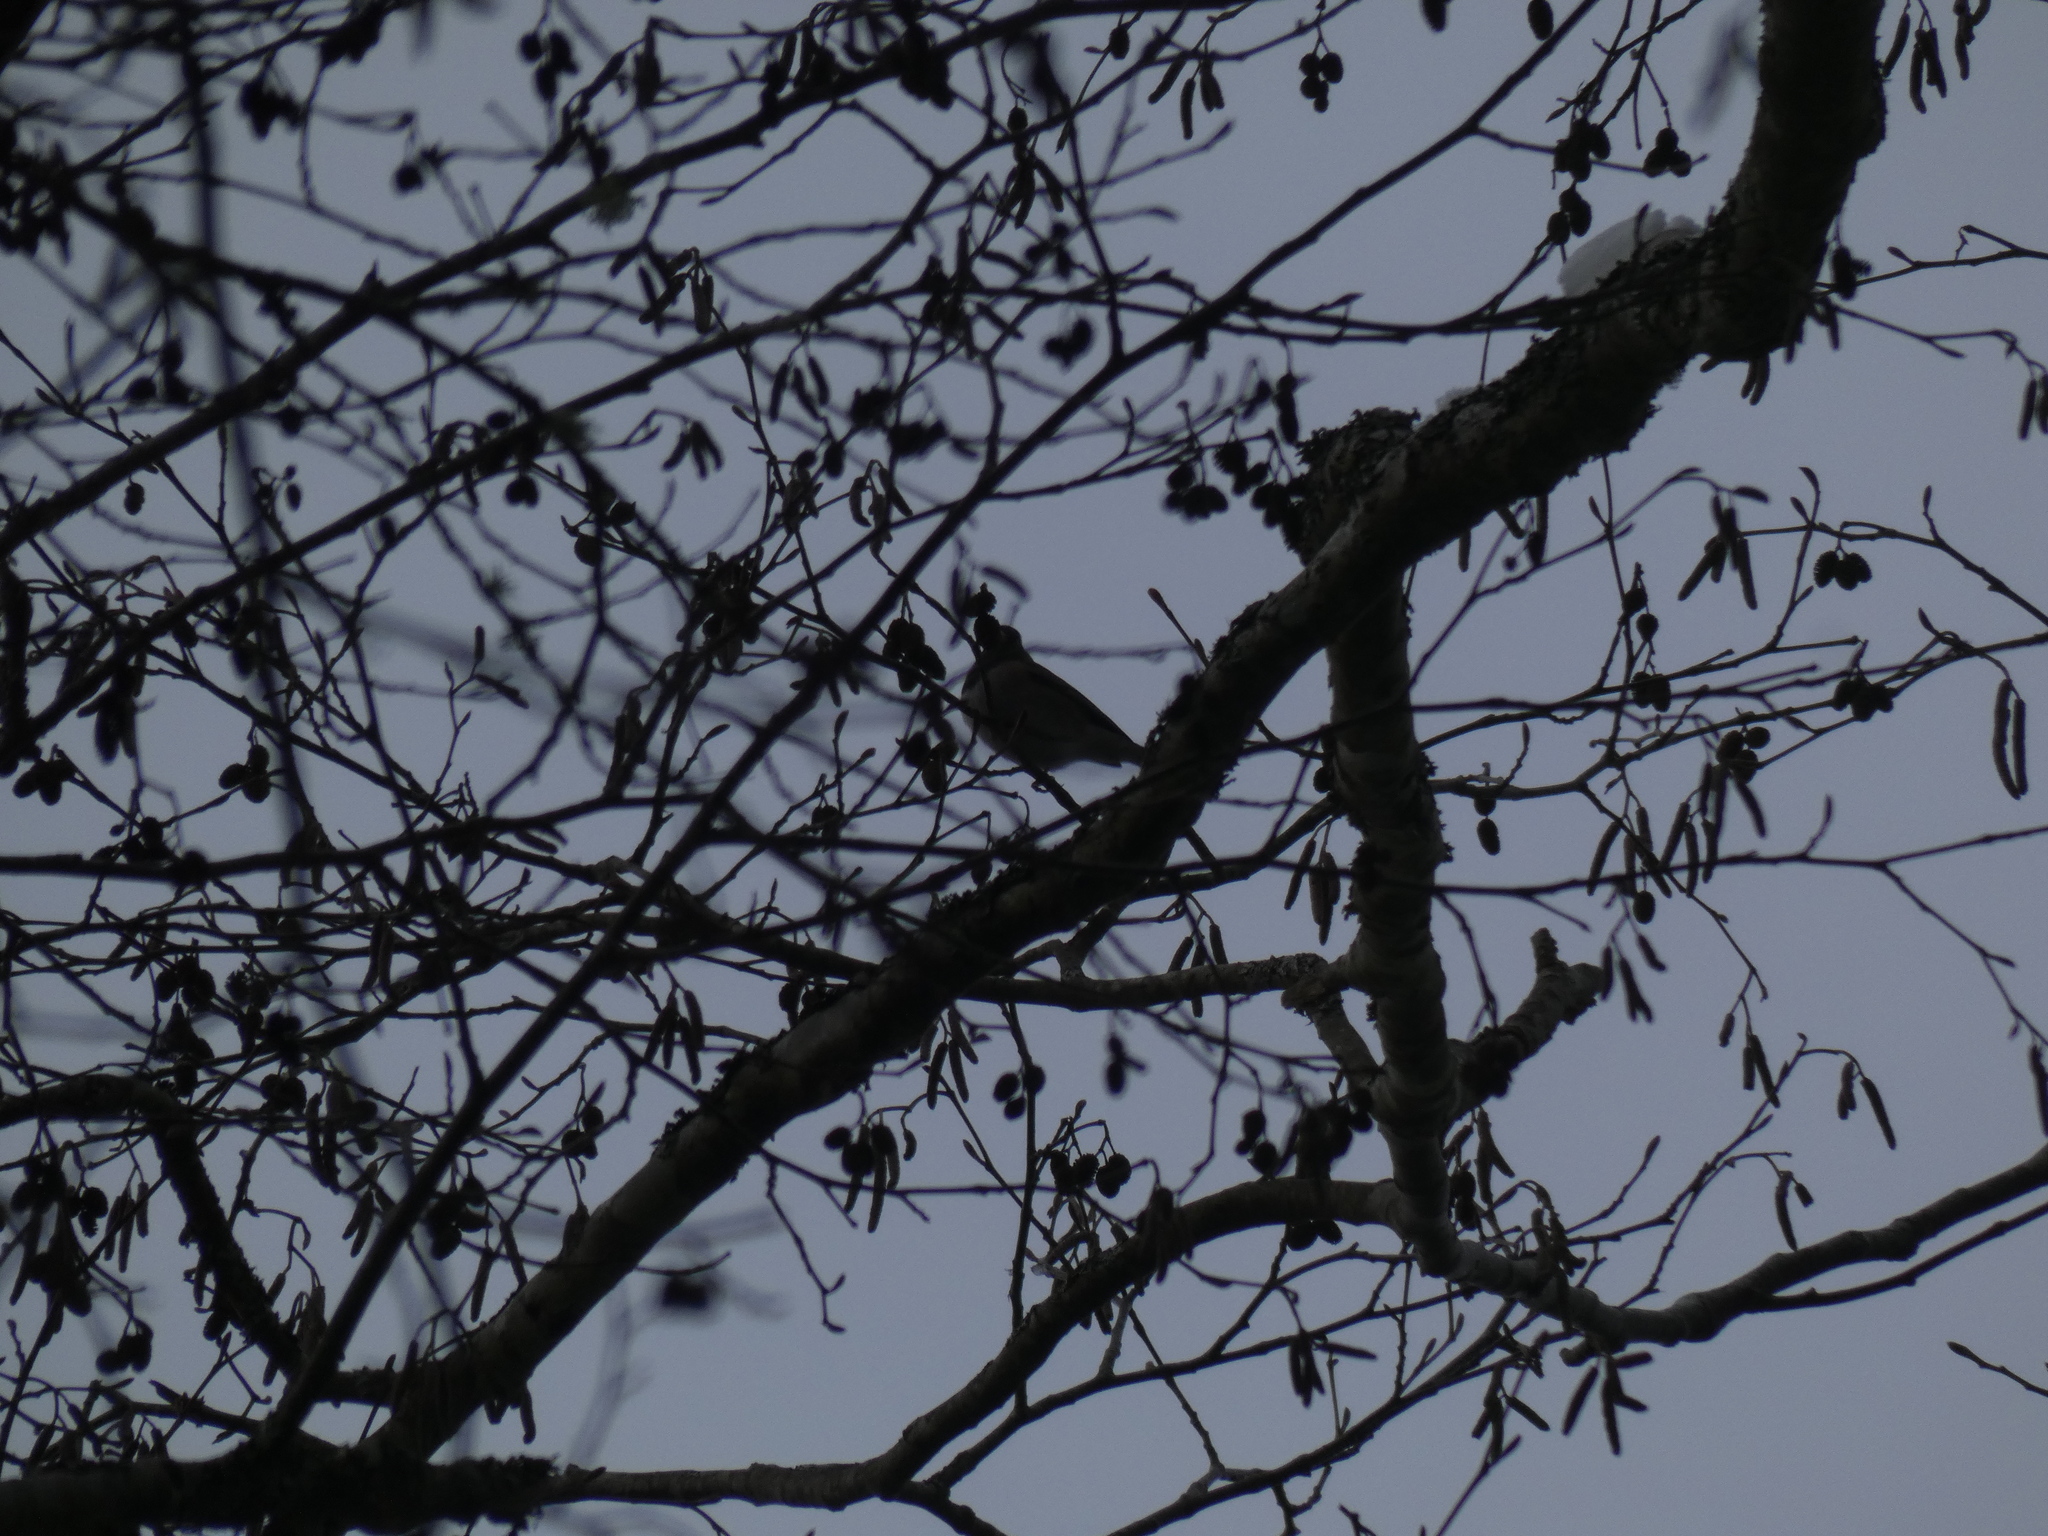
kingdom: Animalia
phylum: Chordata
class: Aves
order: Passeriformes
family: Passerellidae
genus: Junco
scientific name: Junco hyemalis
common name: Dark-eyed junco
